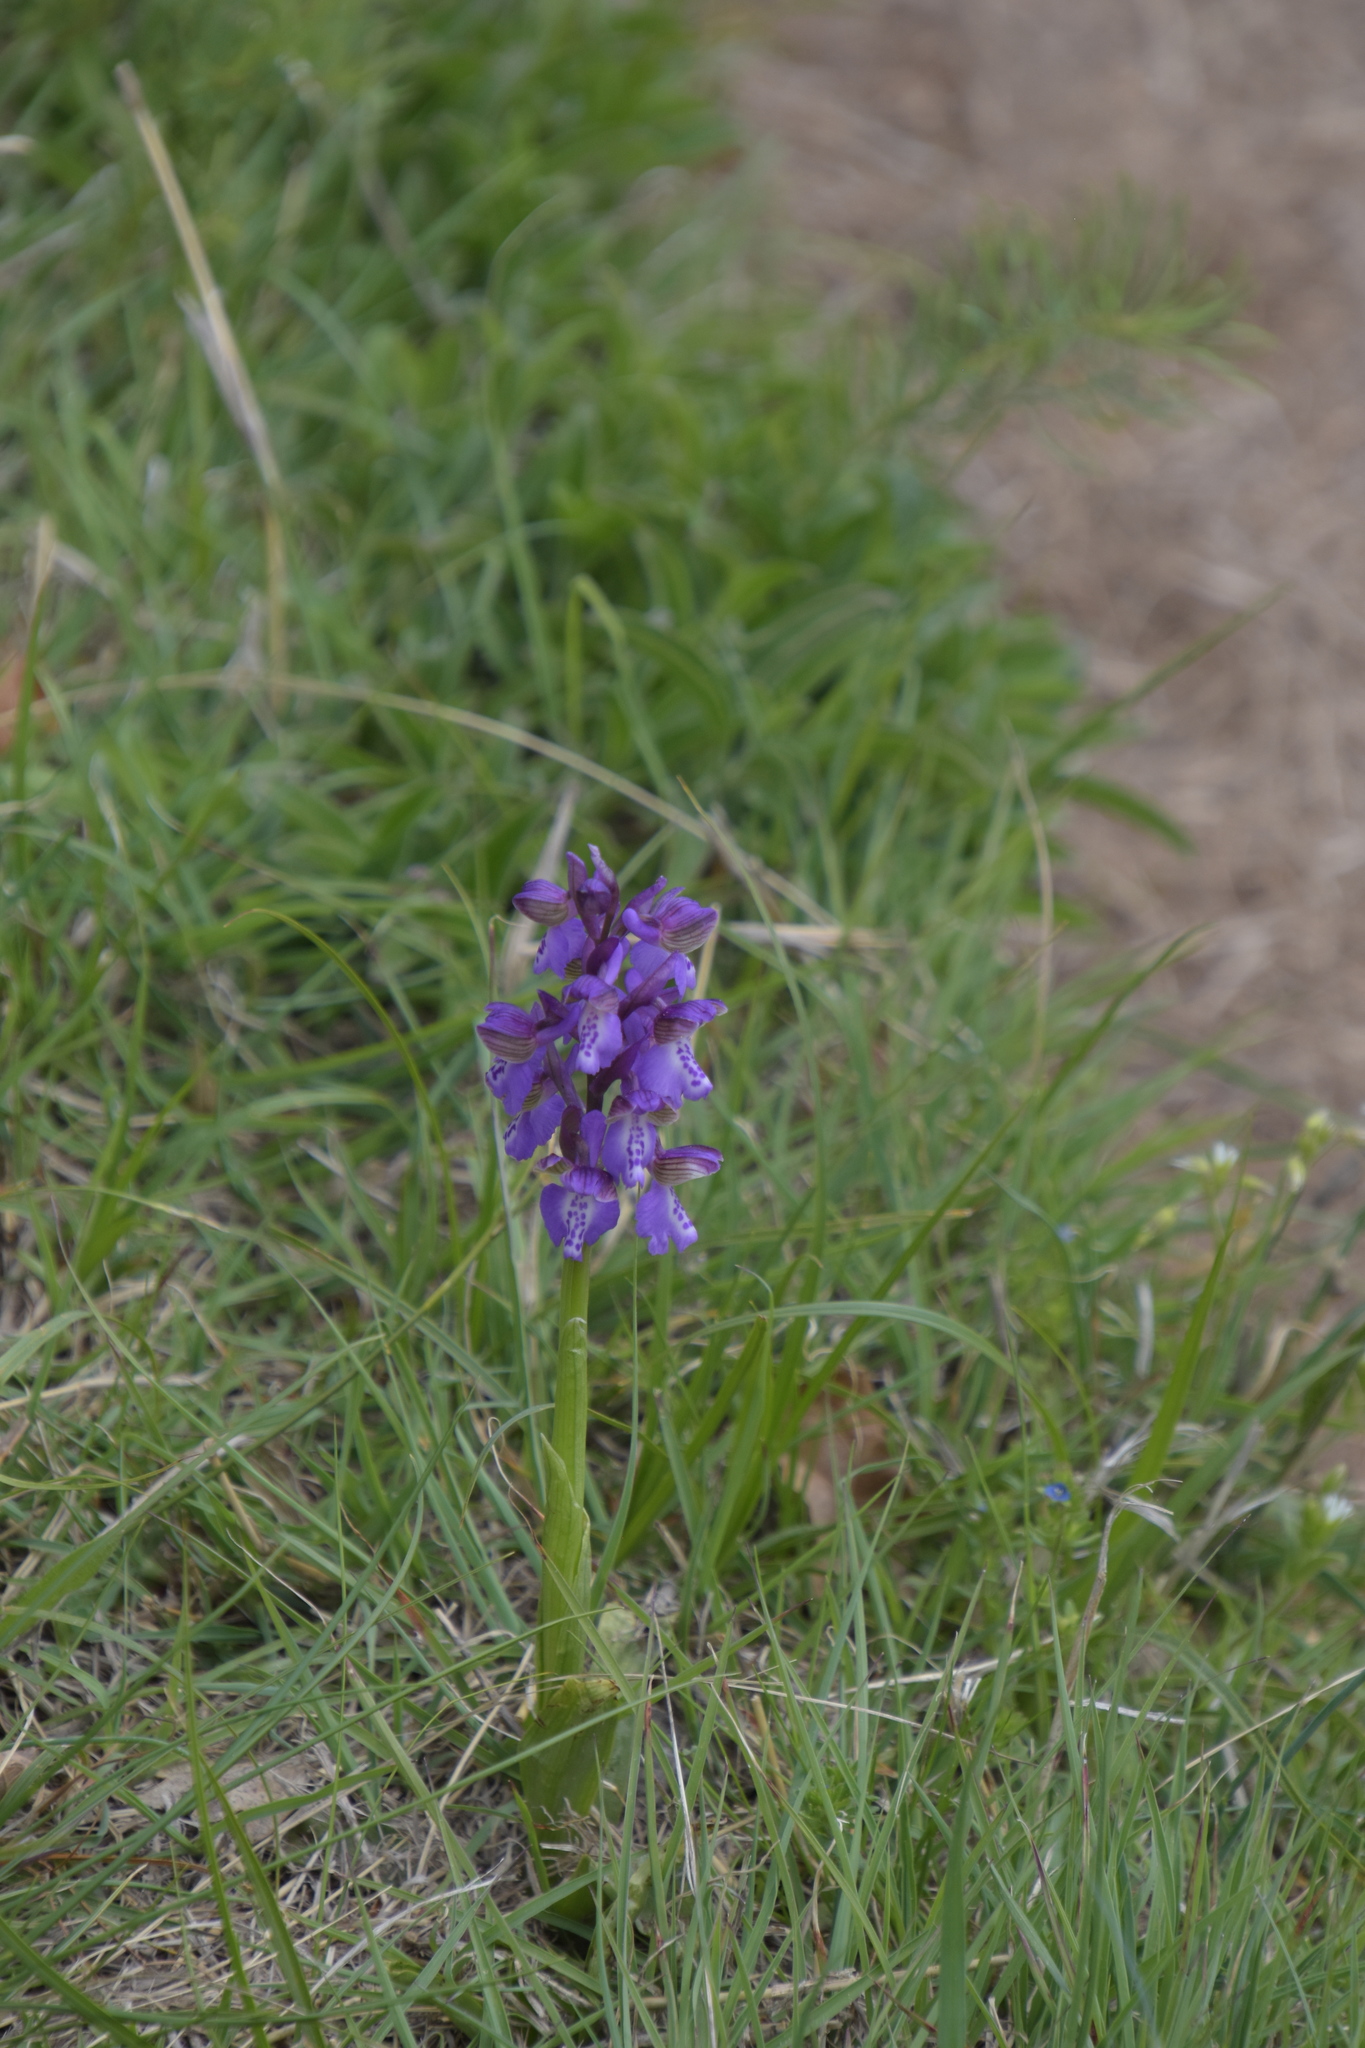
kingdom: Plantae
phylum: Tracheophyta
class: Liliopsida
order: Asparagales
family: Orchidaceae
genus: Anacamptis
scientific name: Anacamptis morio
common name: Green-winged orchid
